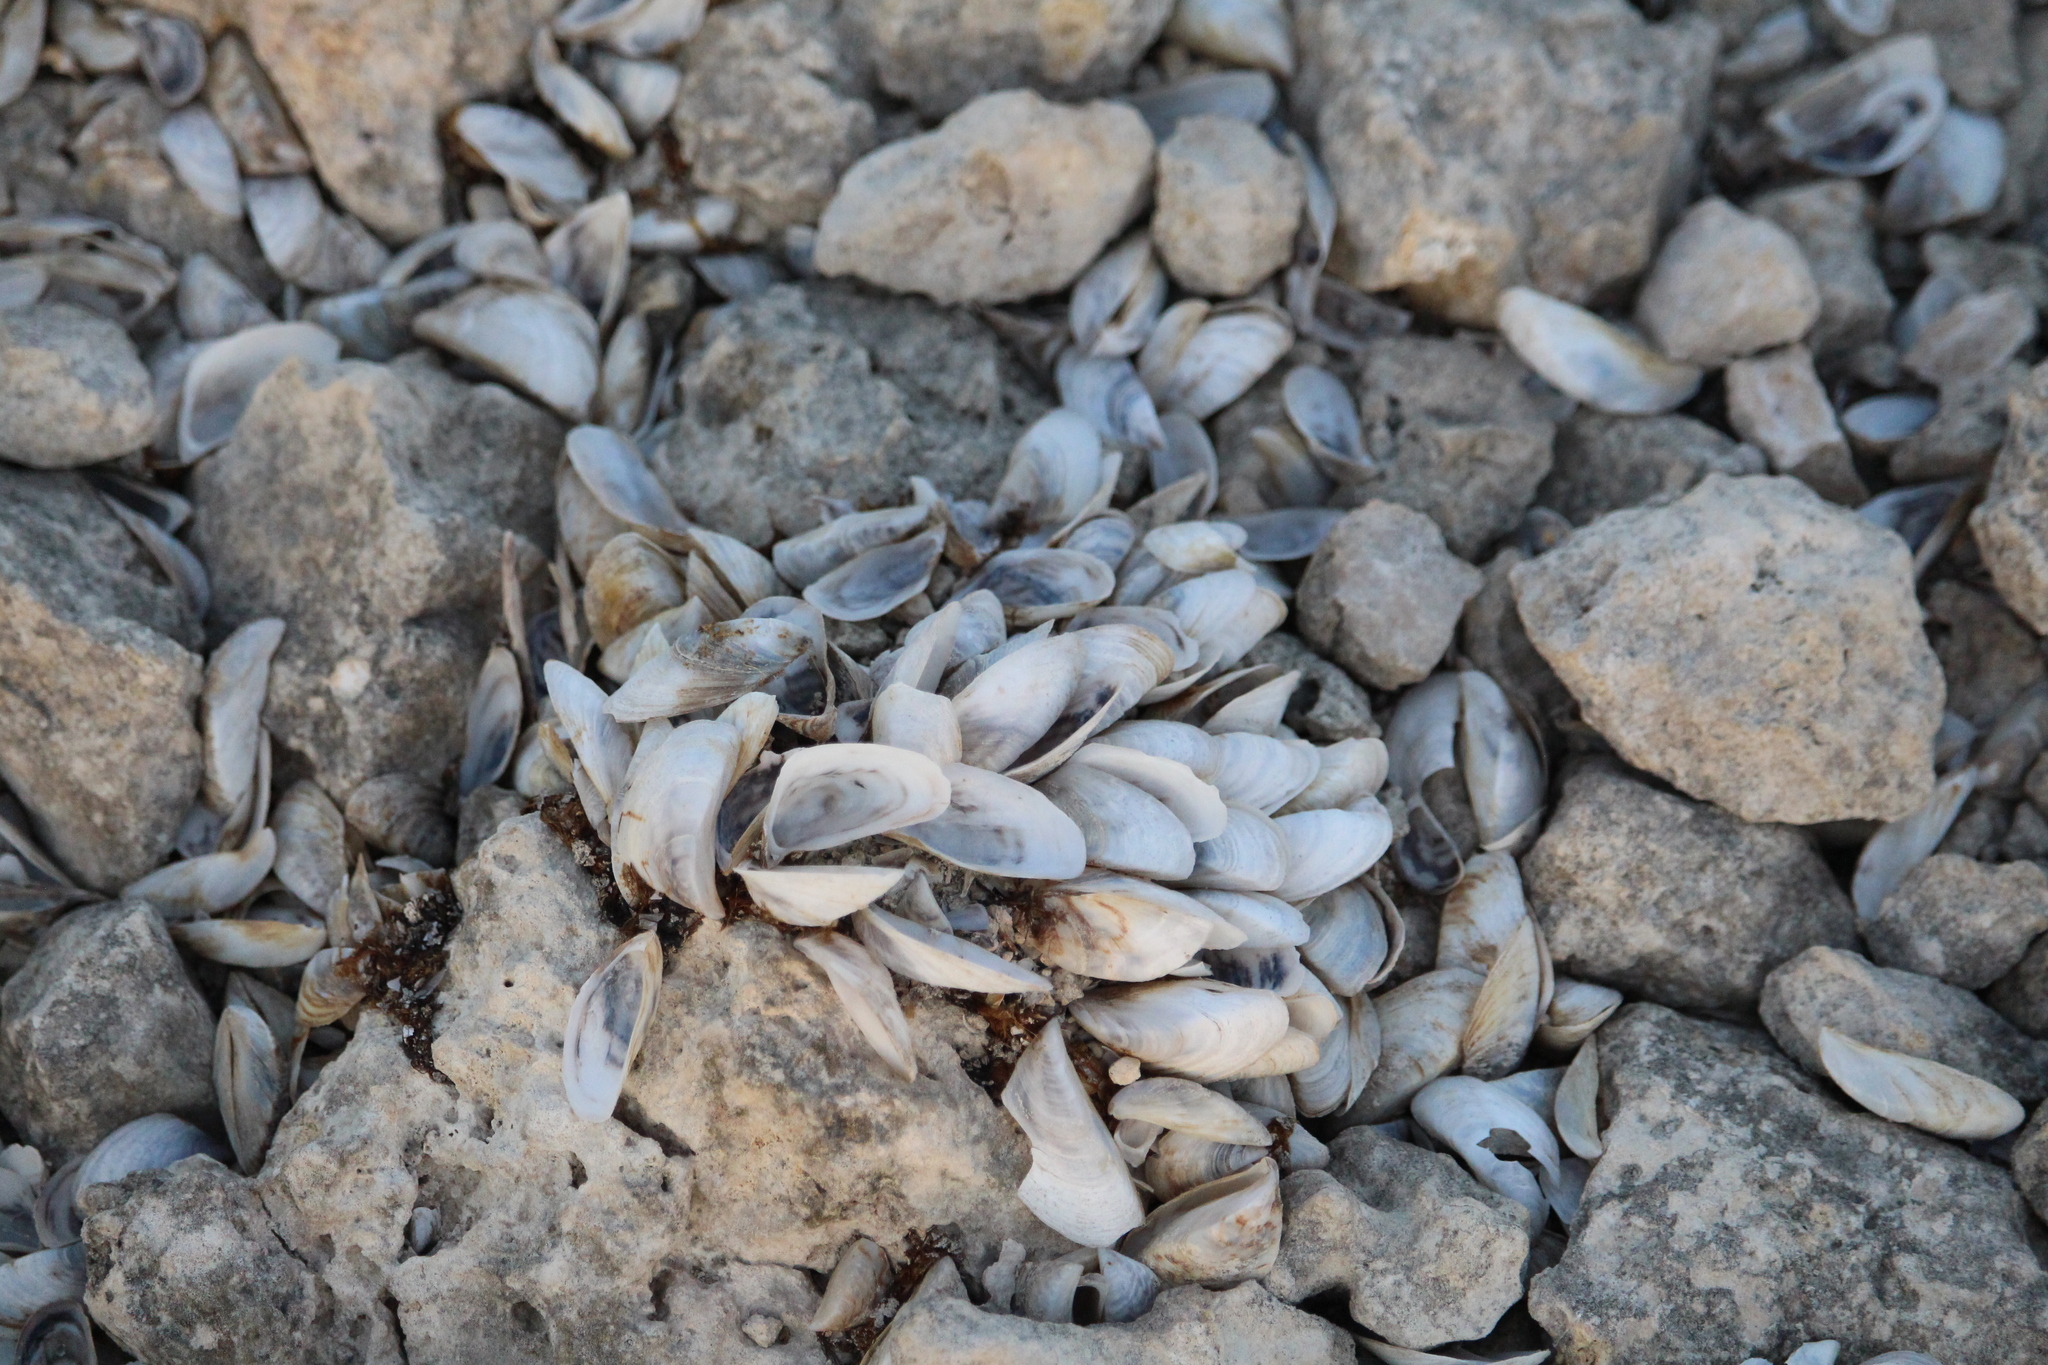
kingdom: Animalia
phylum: Mollusca
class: Bivalvia
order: Myida
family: Dreissenidae
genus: Dreissena
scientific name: Dreissena polymorpha
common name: Zebra mussel
